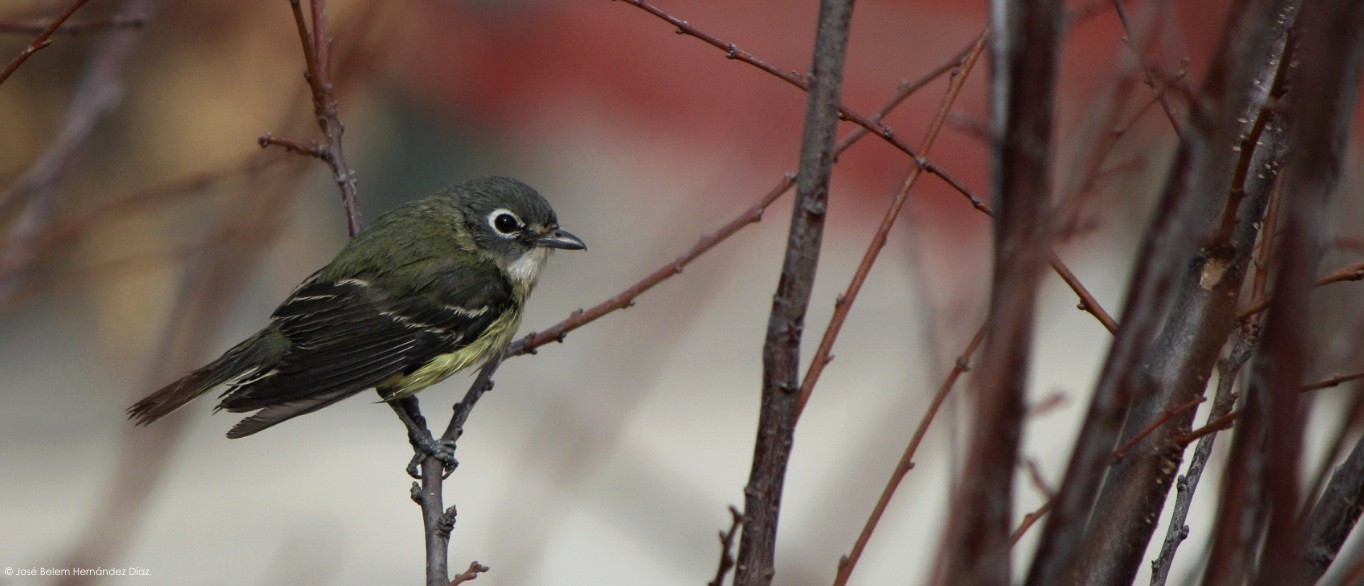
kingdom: Animalia
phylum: Chordata
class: Aves
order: Passeriformes
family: Vireonidae
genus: Vireo
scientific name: Vireo solitarius
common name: Blue-headed vireo
